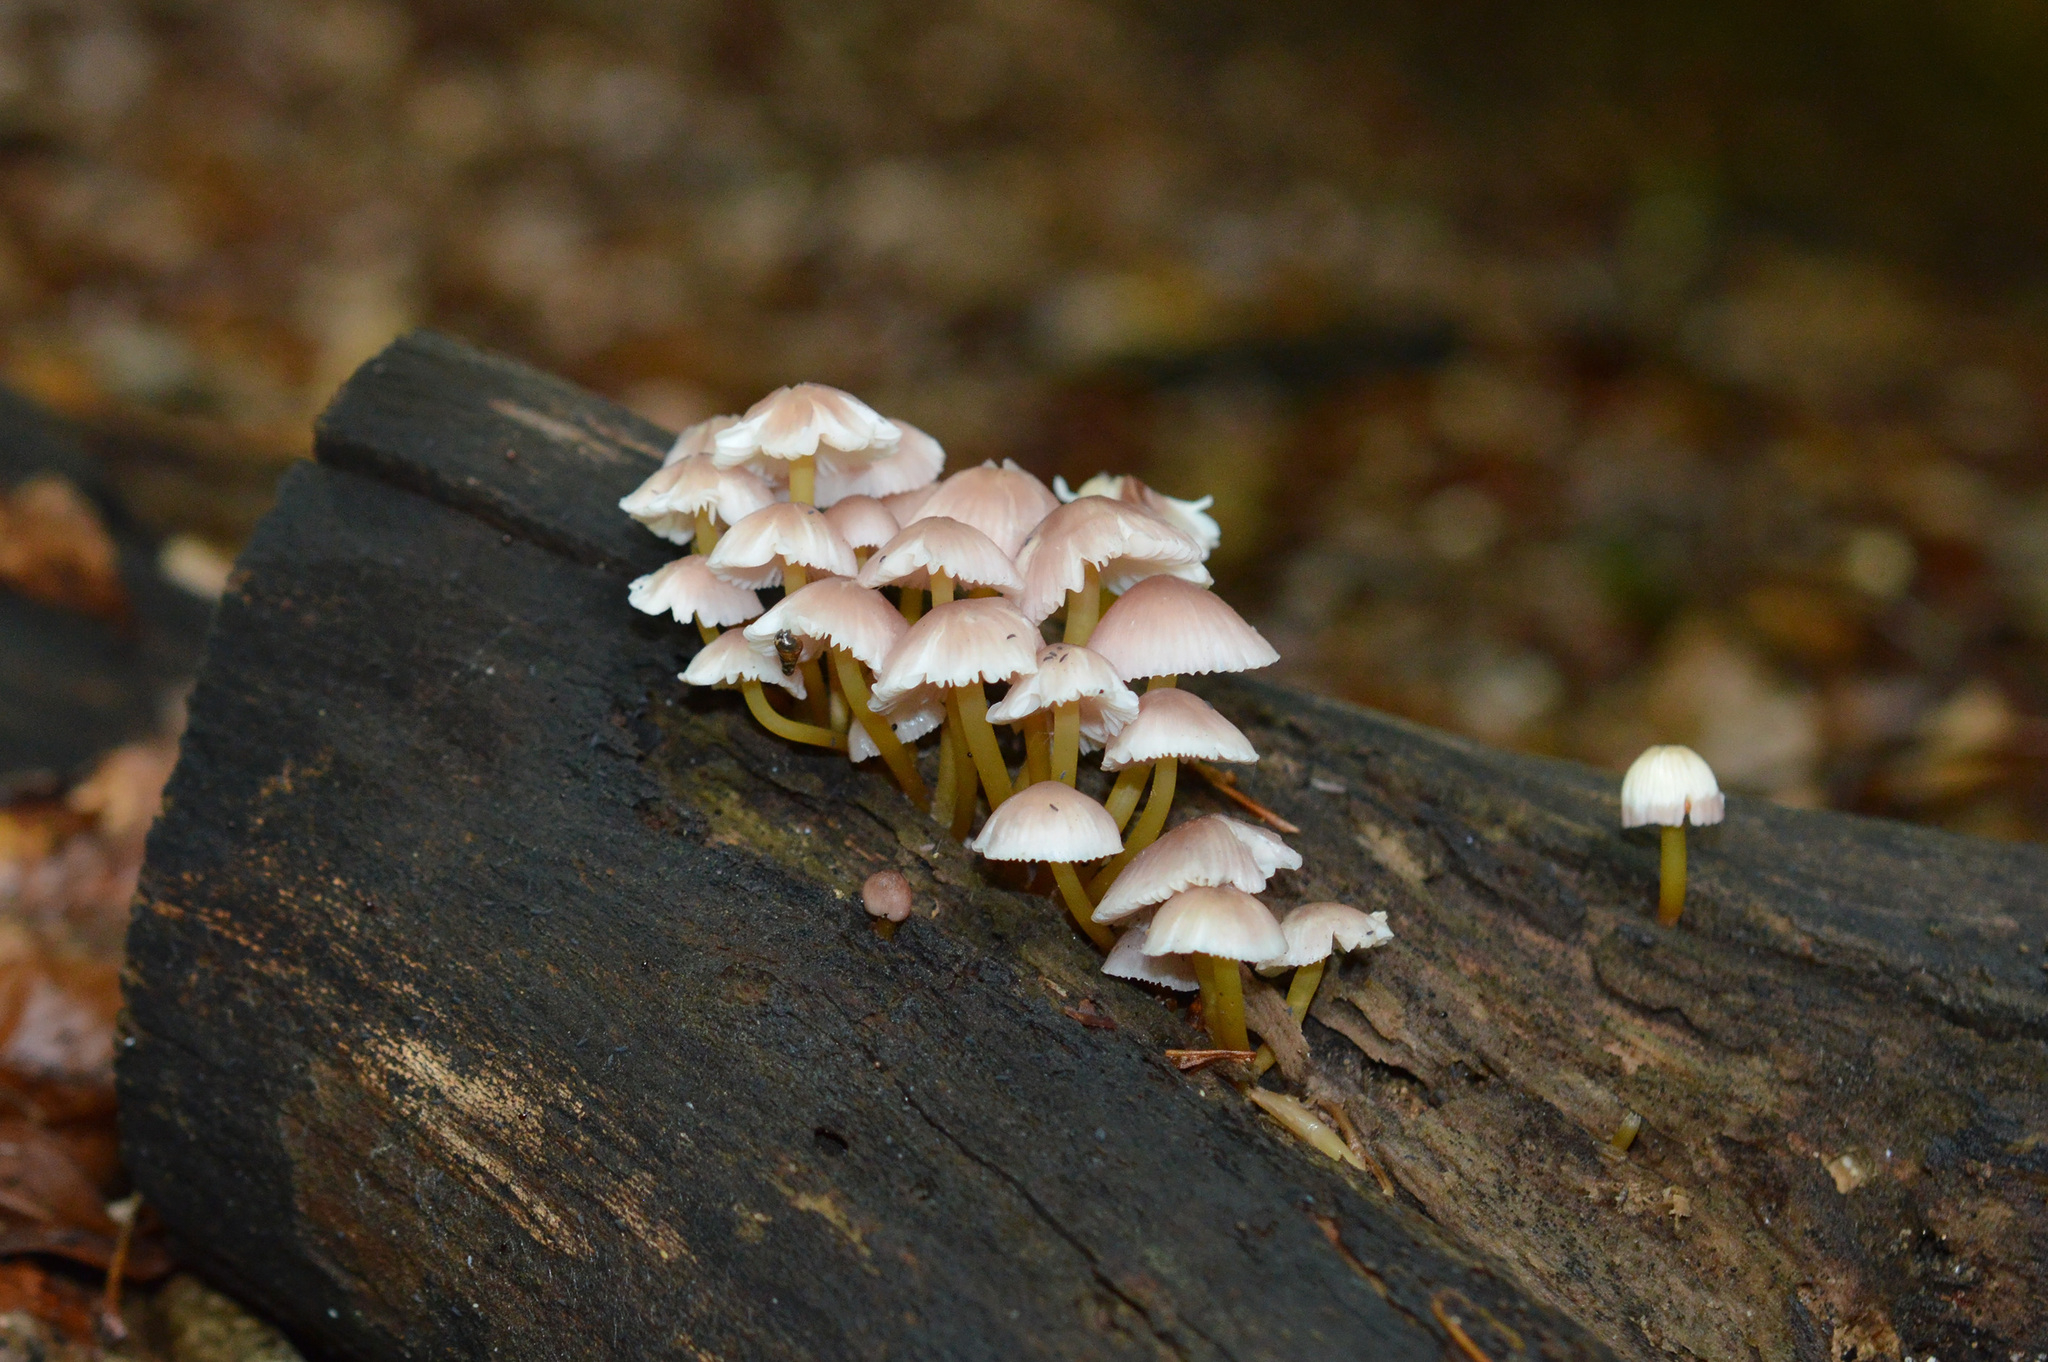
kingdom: Fungi
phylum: Basidiomycota
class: Agaricomycetes
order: Agaricales
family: Mycenaceae
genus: Mycena
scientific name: Mycena renati
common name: Beautiful bonnet
